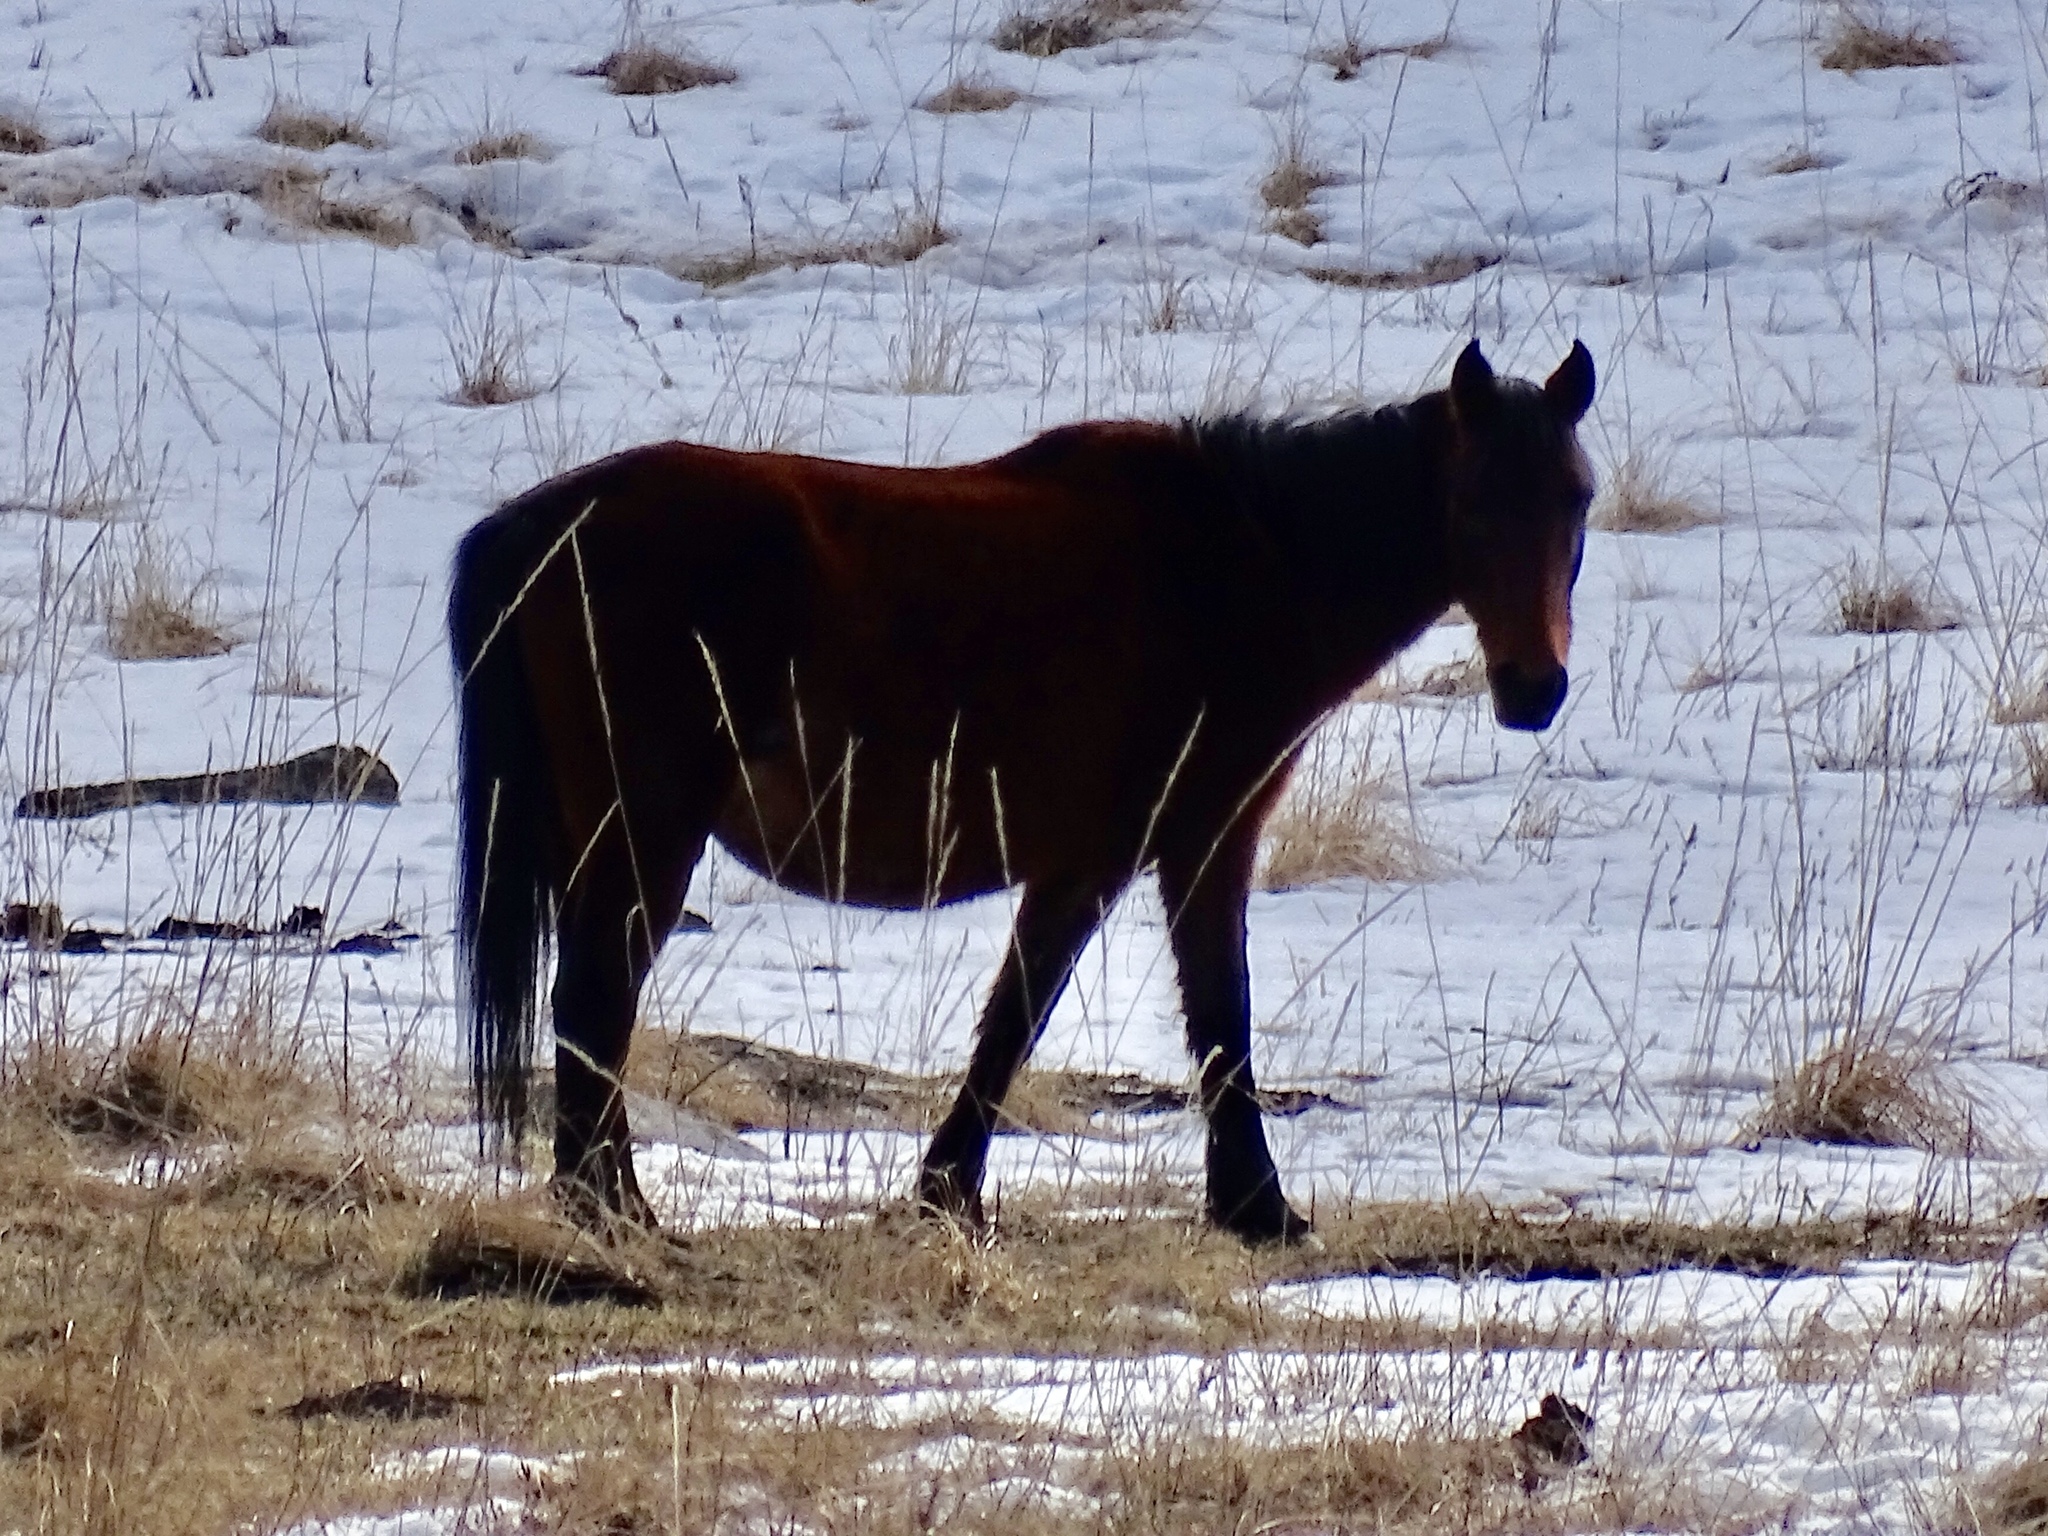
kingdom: Animalia
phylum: Chordata
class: Mammalia
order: Perissodactyla
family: Equidae
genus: Equus
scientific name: Equus caballus
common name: Horse
